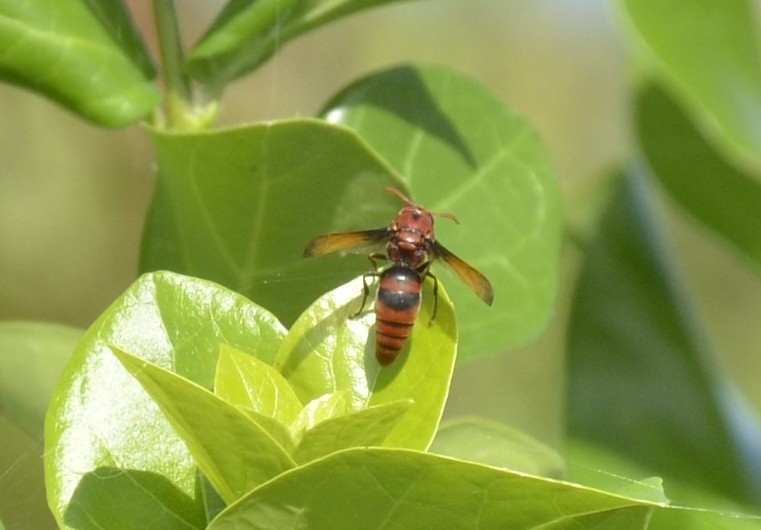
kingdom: Animalia
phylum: Arthropoda
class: Insecta
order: Hymenoptera
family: Eumenidae
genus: Rhynchium
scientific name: Rhynchium brunneum
